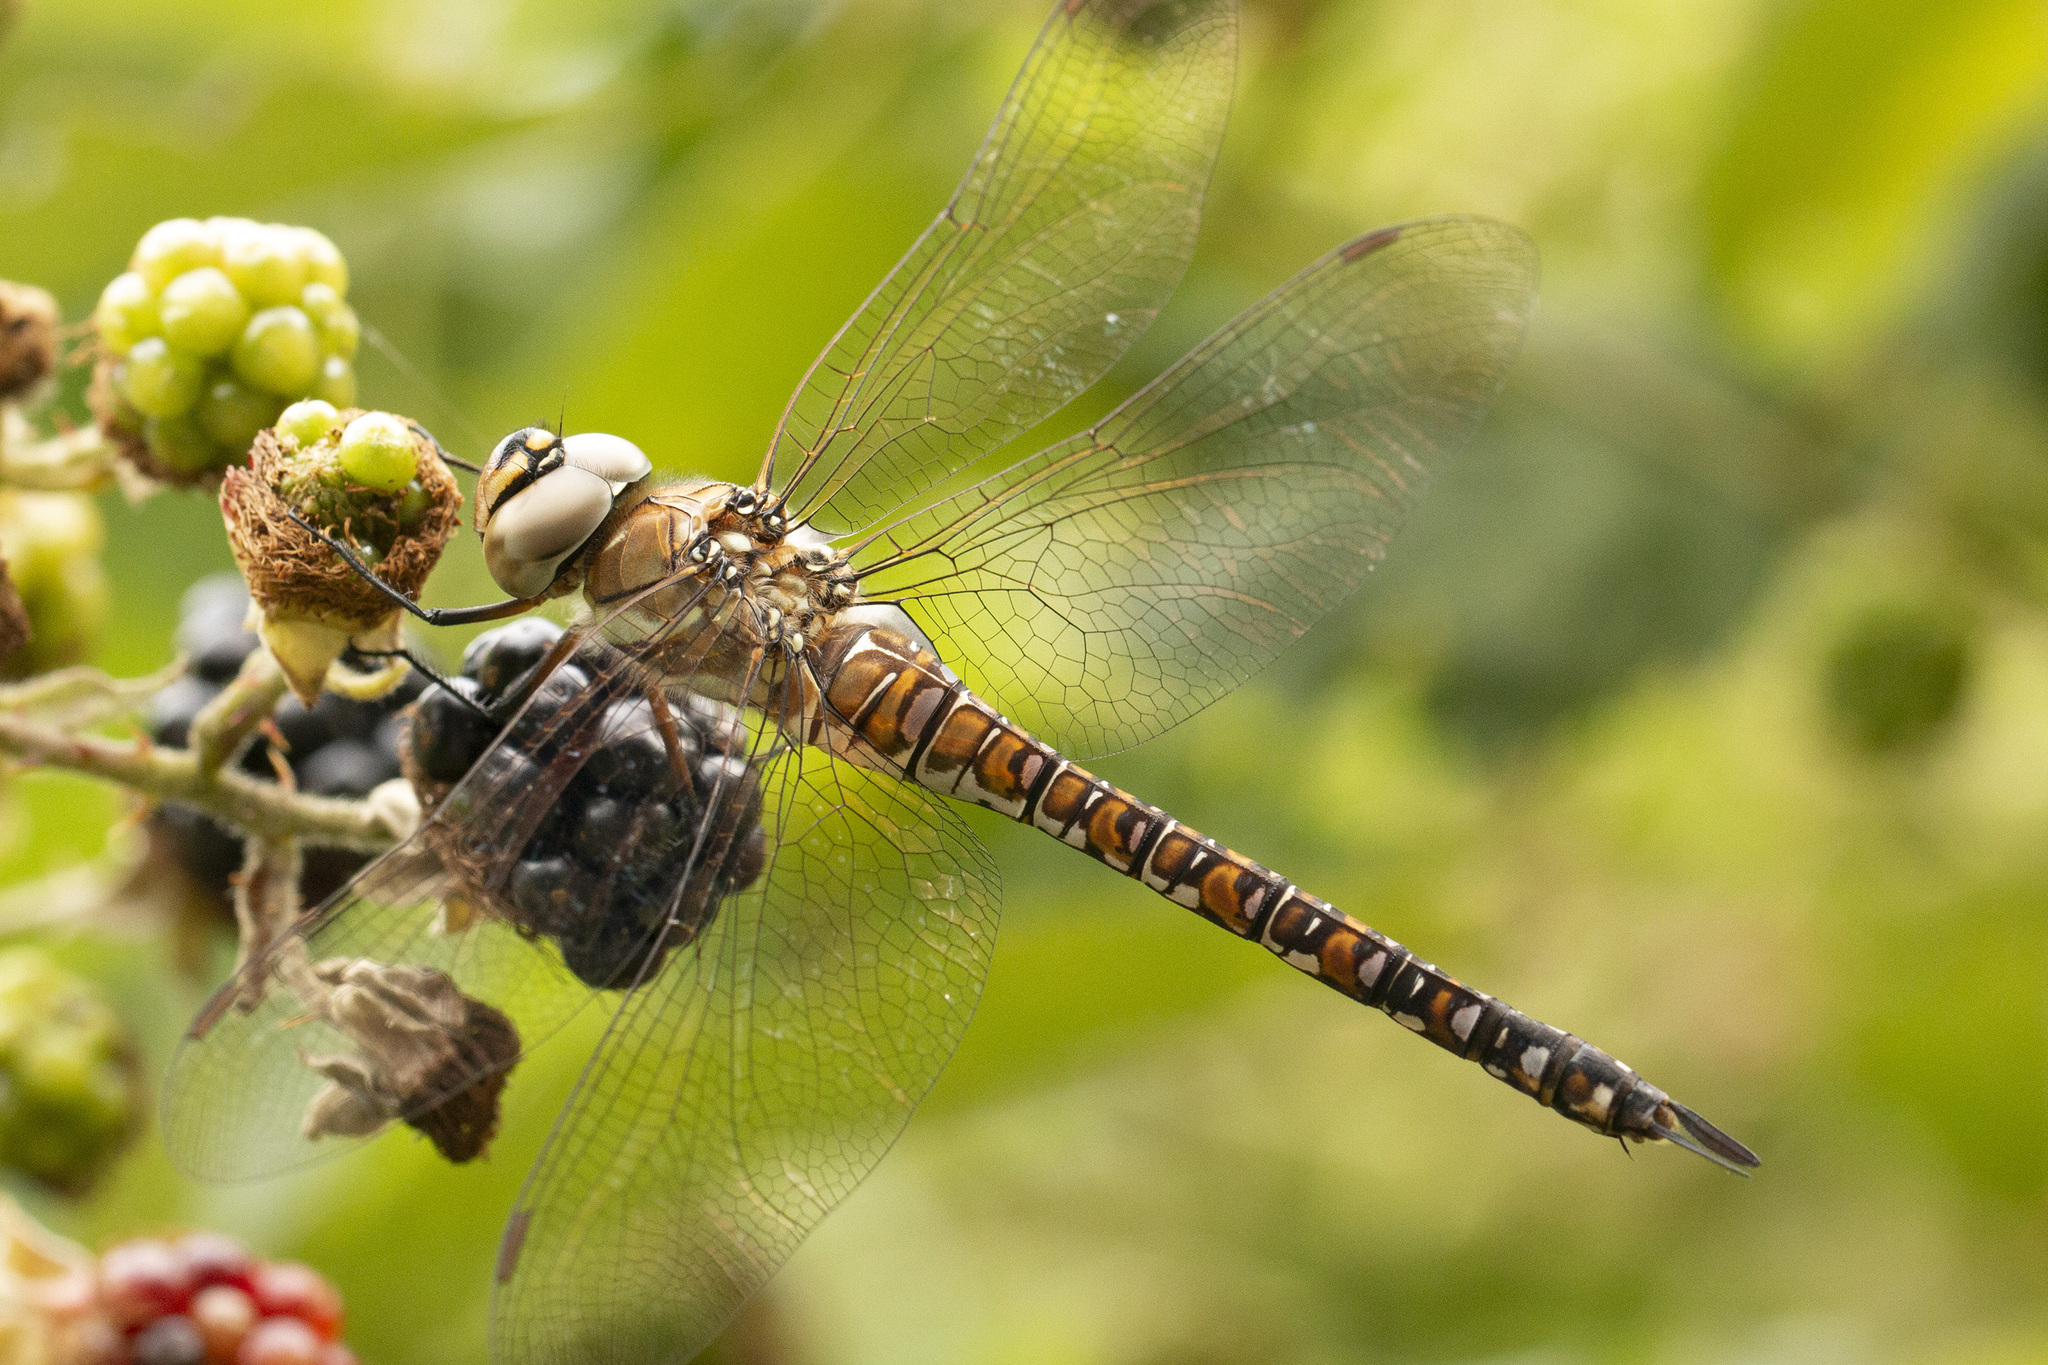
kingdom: Animalia
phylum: Arthropoda
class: Insecta
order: Odonata
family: Aeshnidae
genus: Aeshna
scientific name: Aeshna mixta
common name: Migrant hawker
